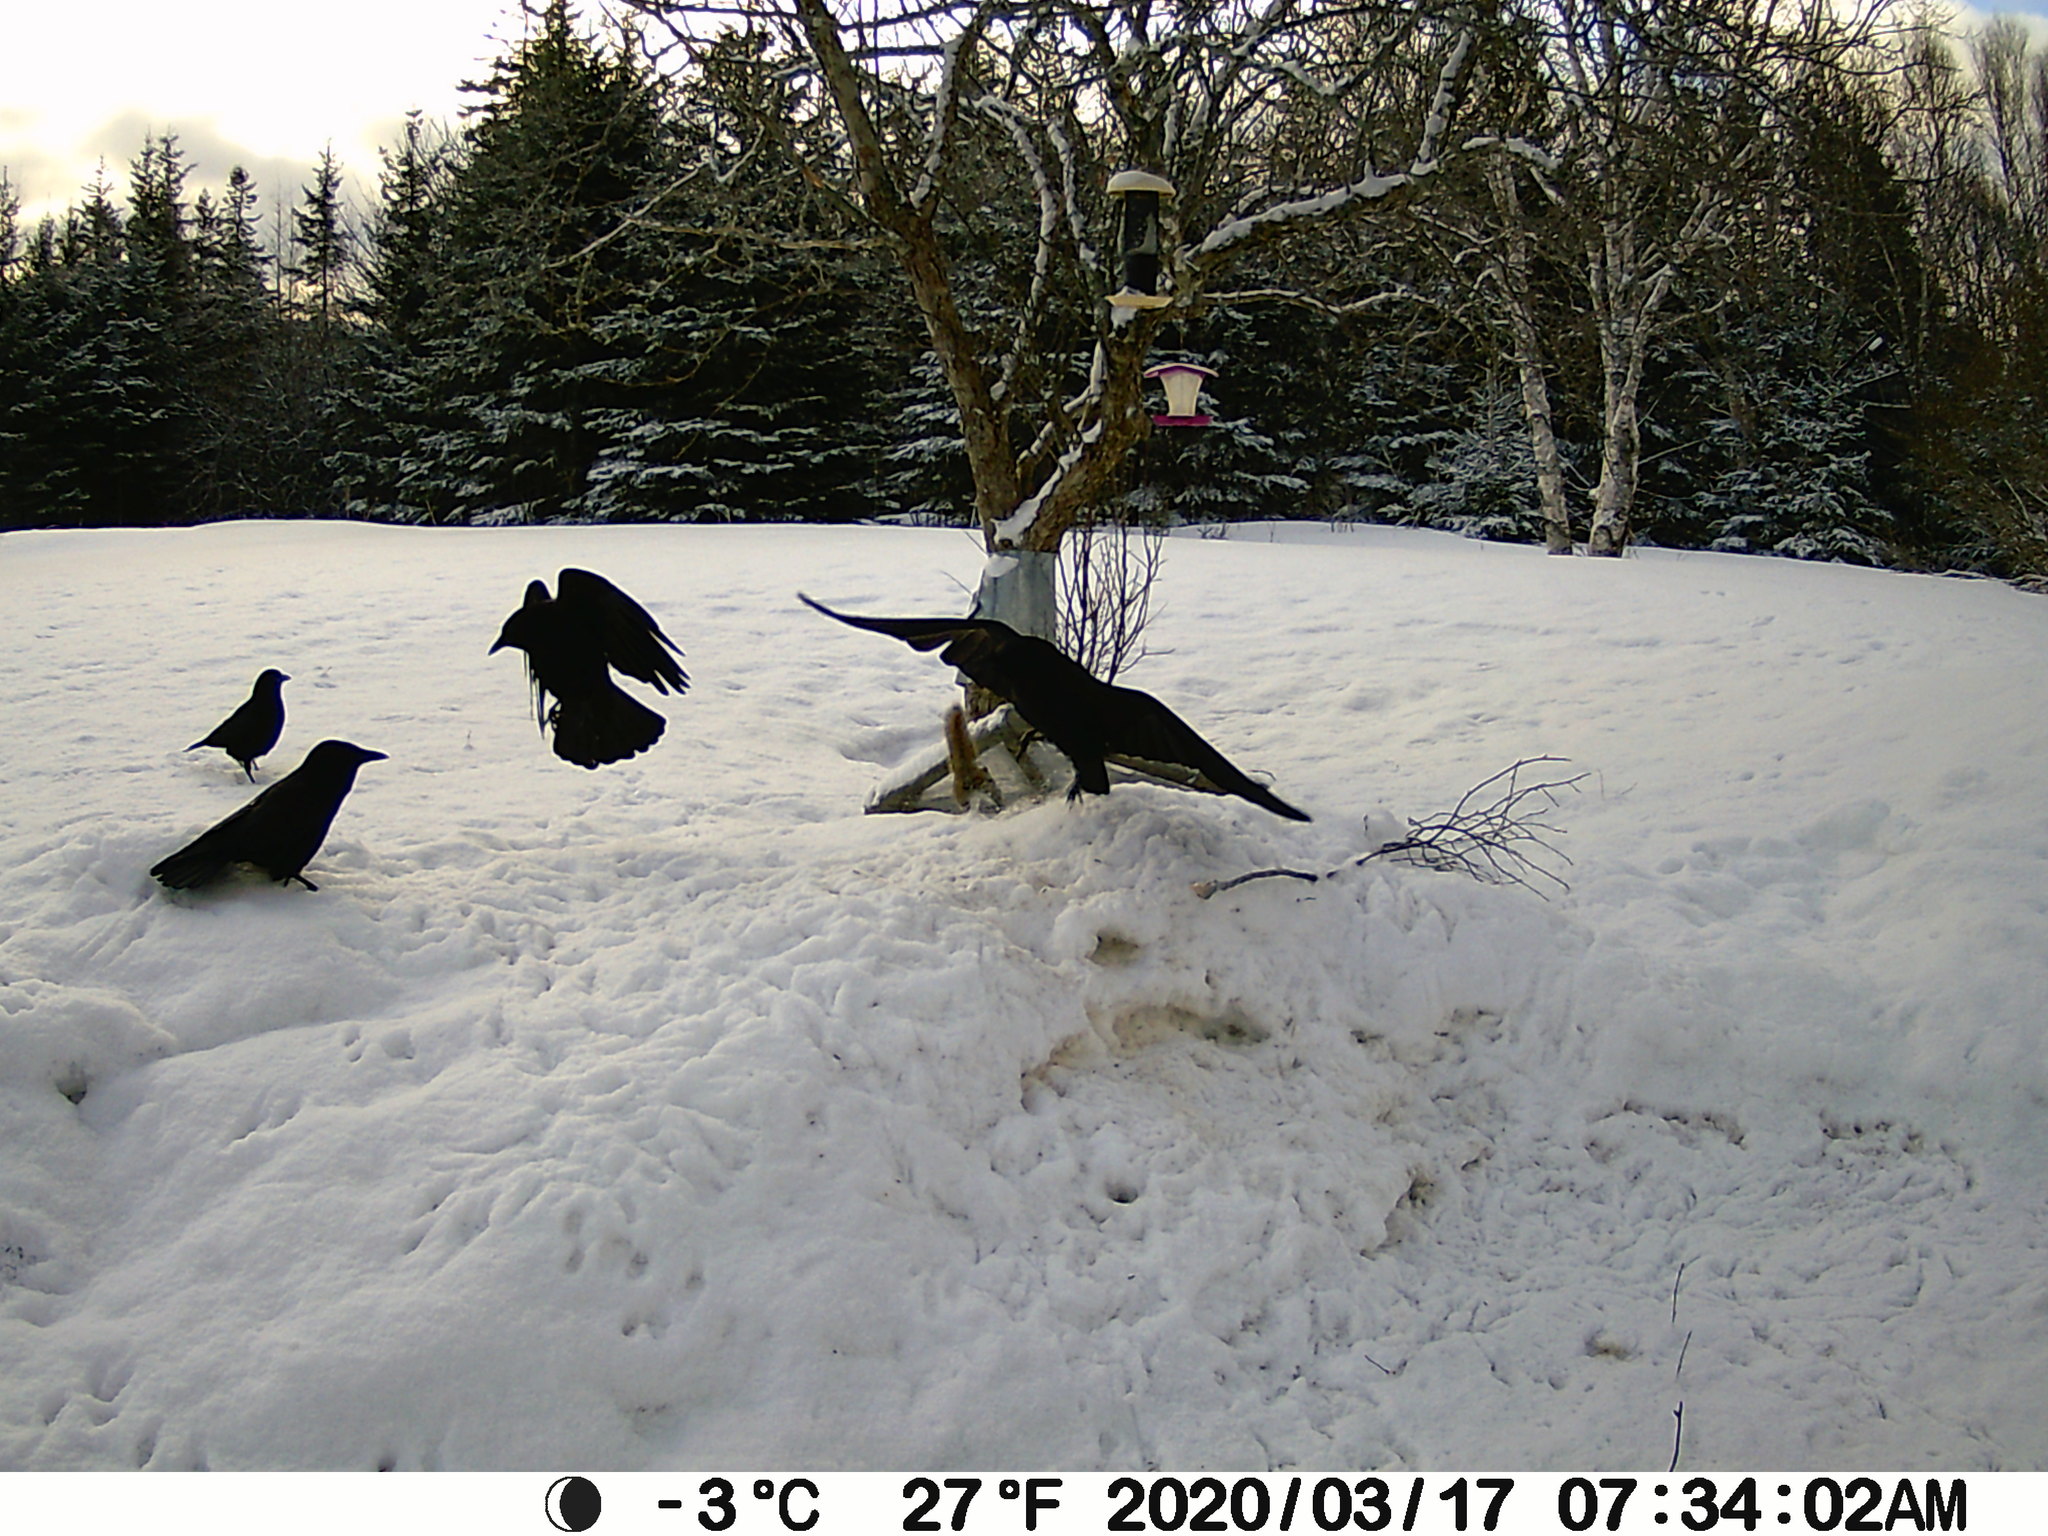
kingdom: Animalia
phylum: Chordata
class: Aves
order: Passeriformes
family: Corvidae
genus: Corvus
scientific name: Corvus brachyrhynchos
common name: American crow
